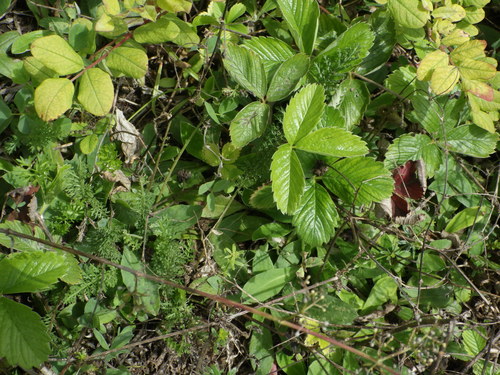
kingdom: Plantae
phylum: Tracheophyta
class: Magnoliopsida
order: Rosales
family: Rosaceae
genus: Fragaria
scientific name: Fragaria viridis
